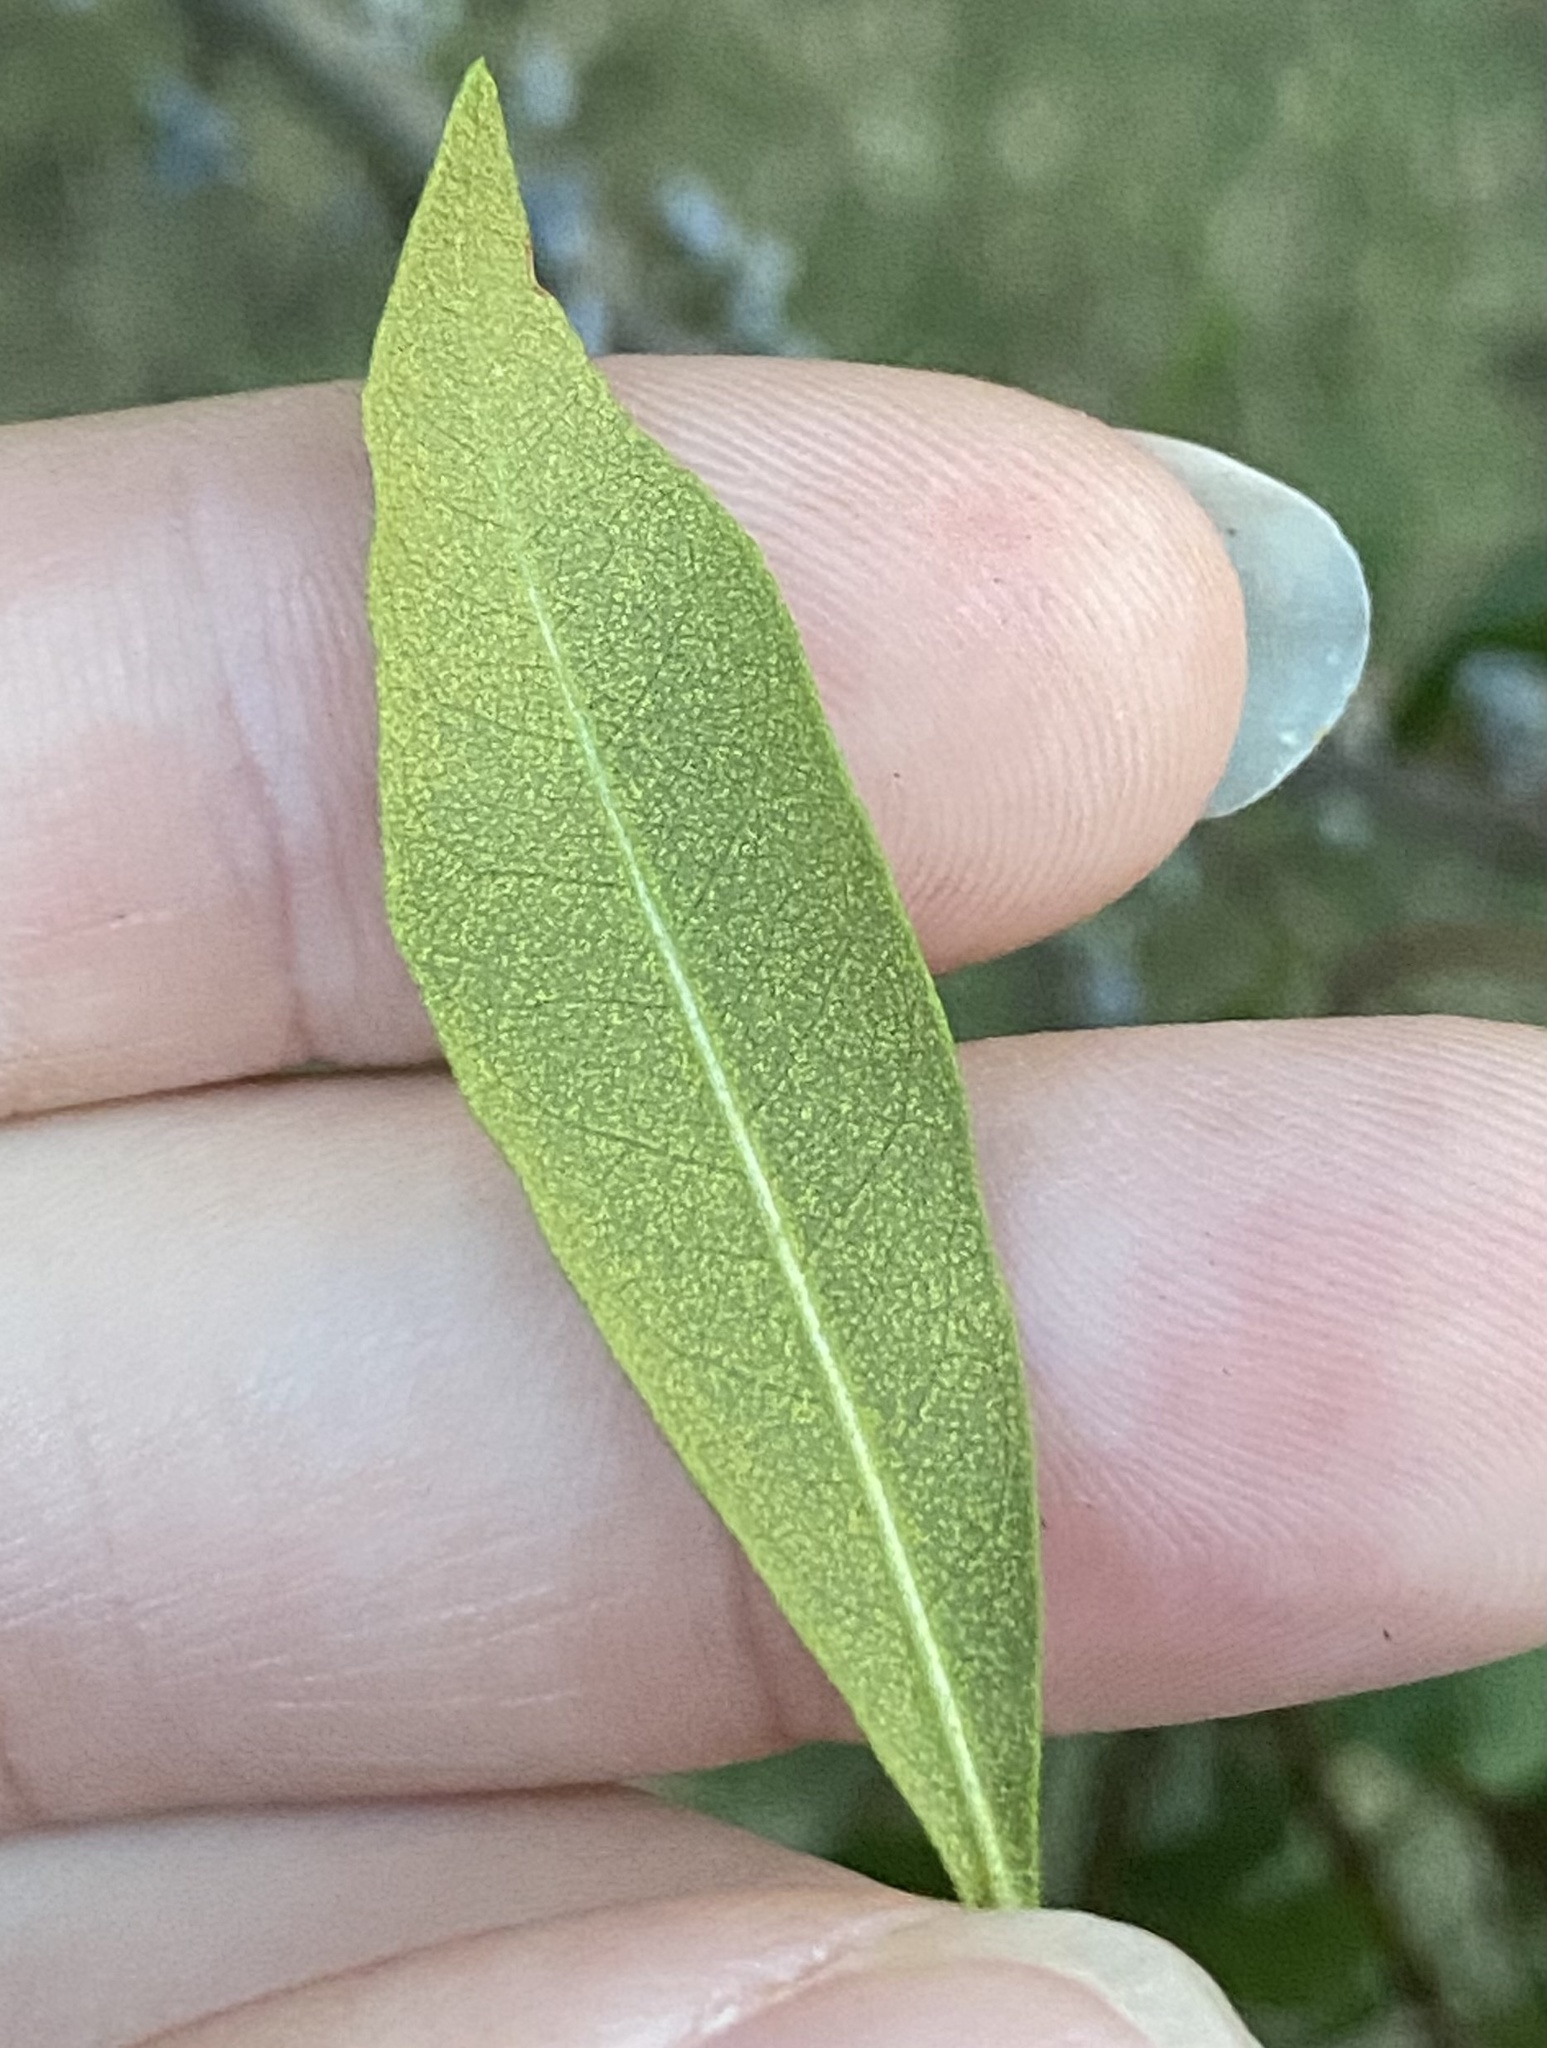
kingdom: Plantae
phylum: Tracheophyta
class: Magnoliopsida
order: Fagales
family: Myricaceae
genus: Morella
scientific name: Morella cerifera
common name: Wax myrtle
